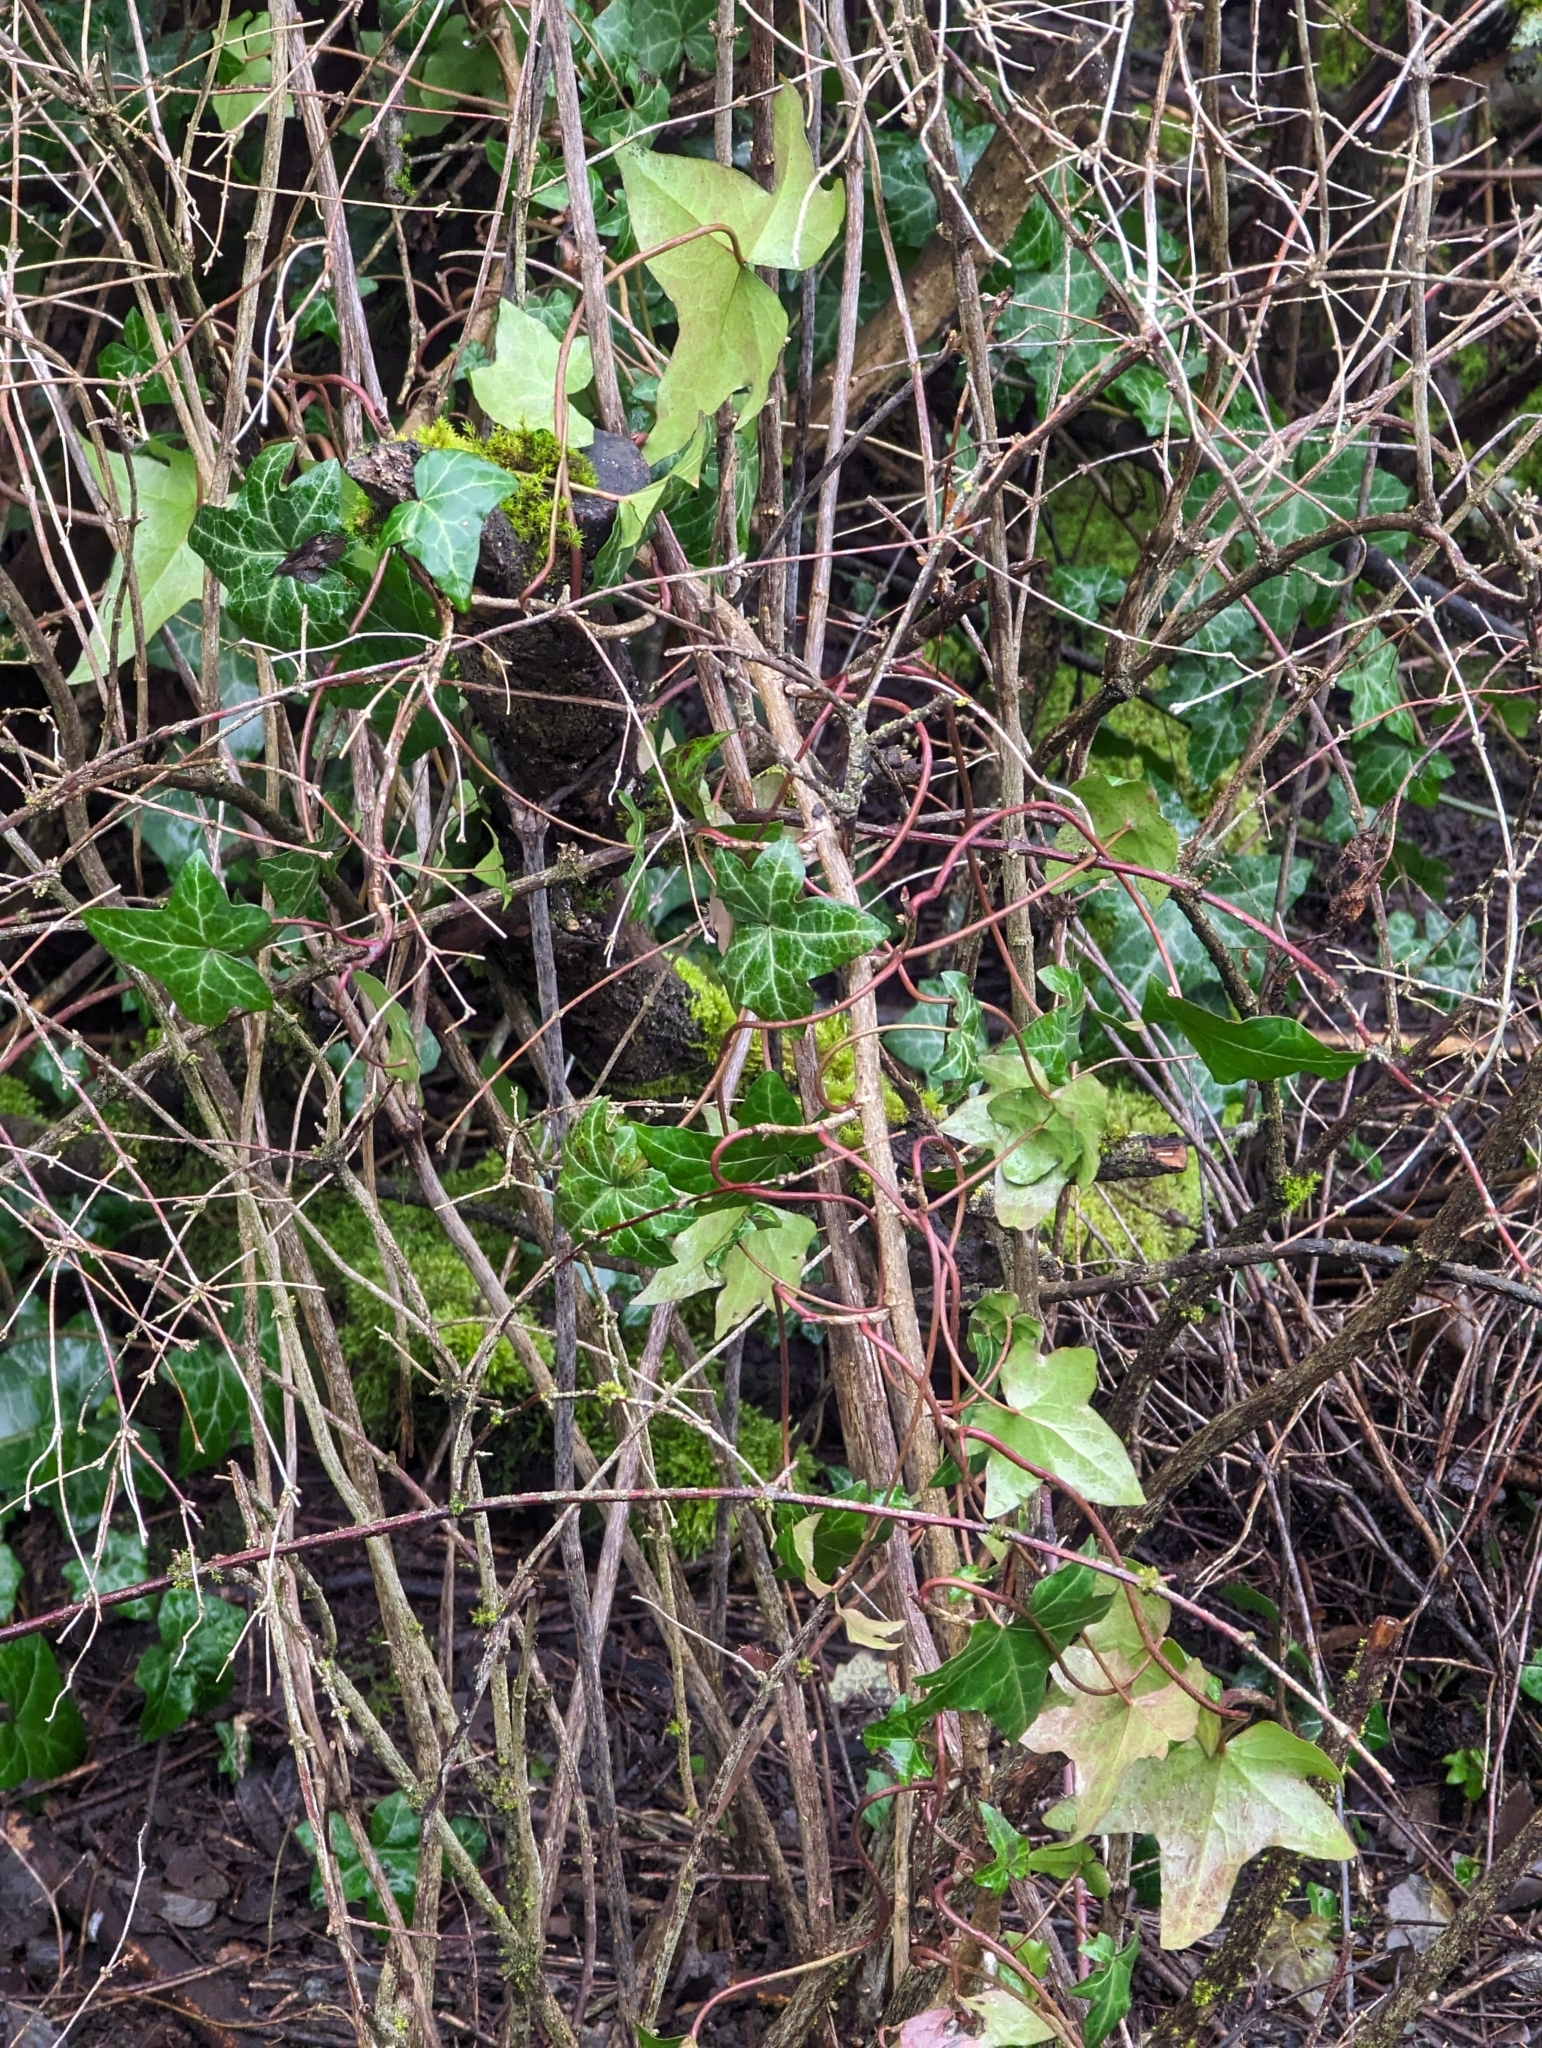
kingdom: Plantae
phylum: Tracheophyta
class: Magnoliopsida
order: Apiales
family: Araliaceae
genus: Hedera
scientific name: Hedera helix
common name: Ivy
